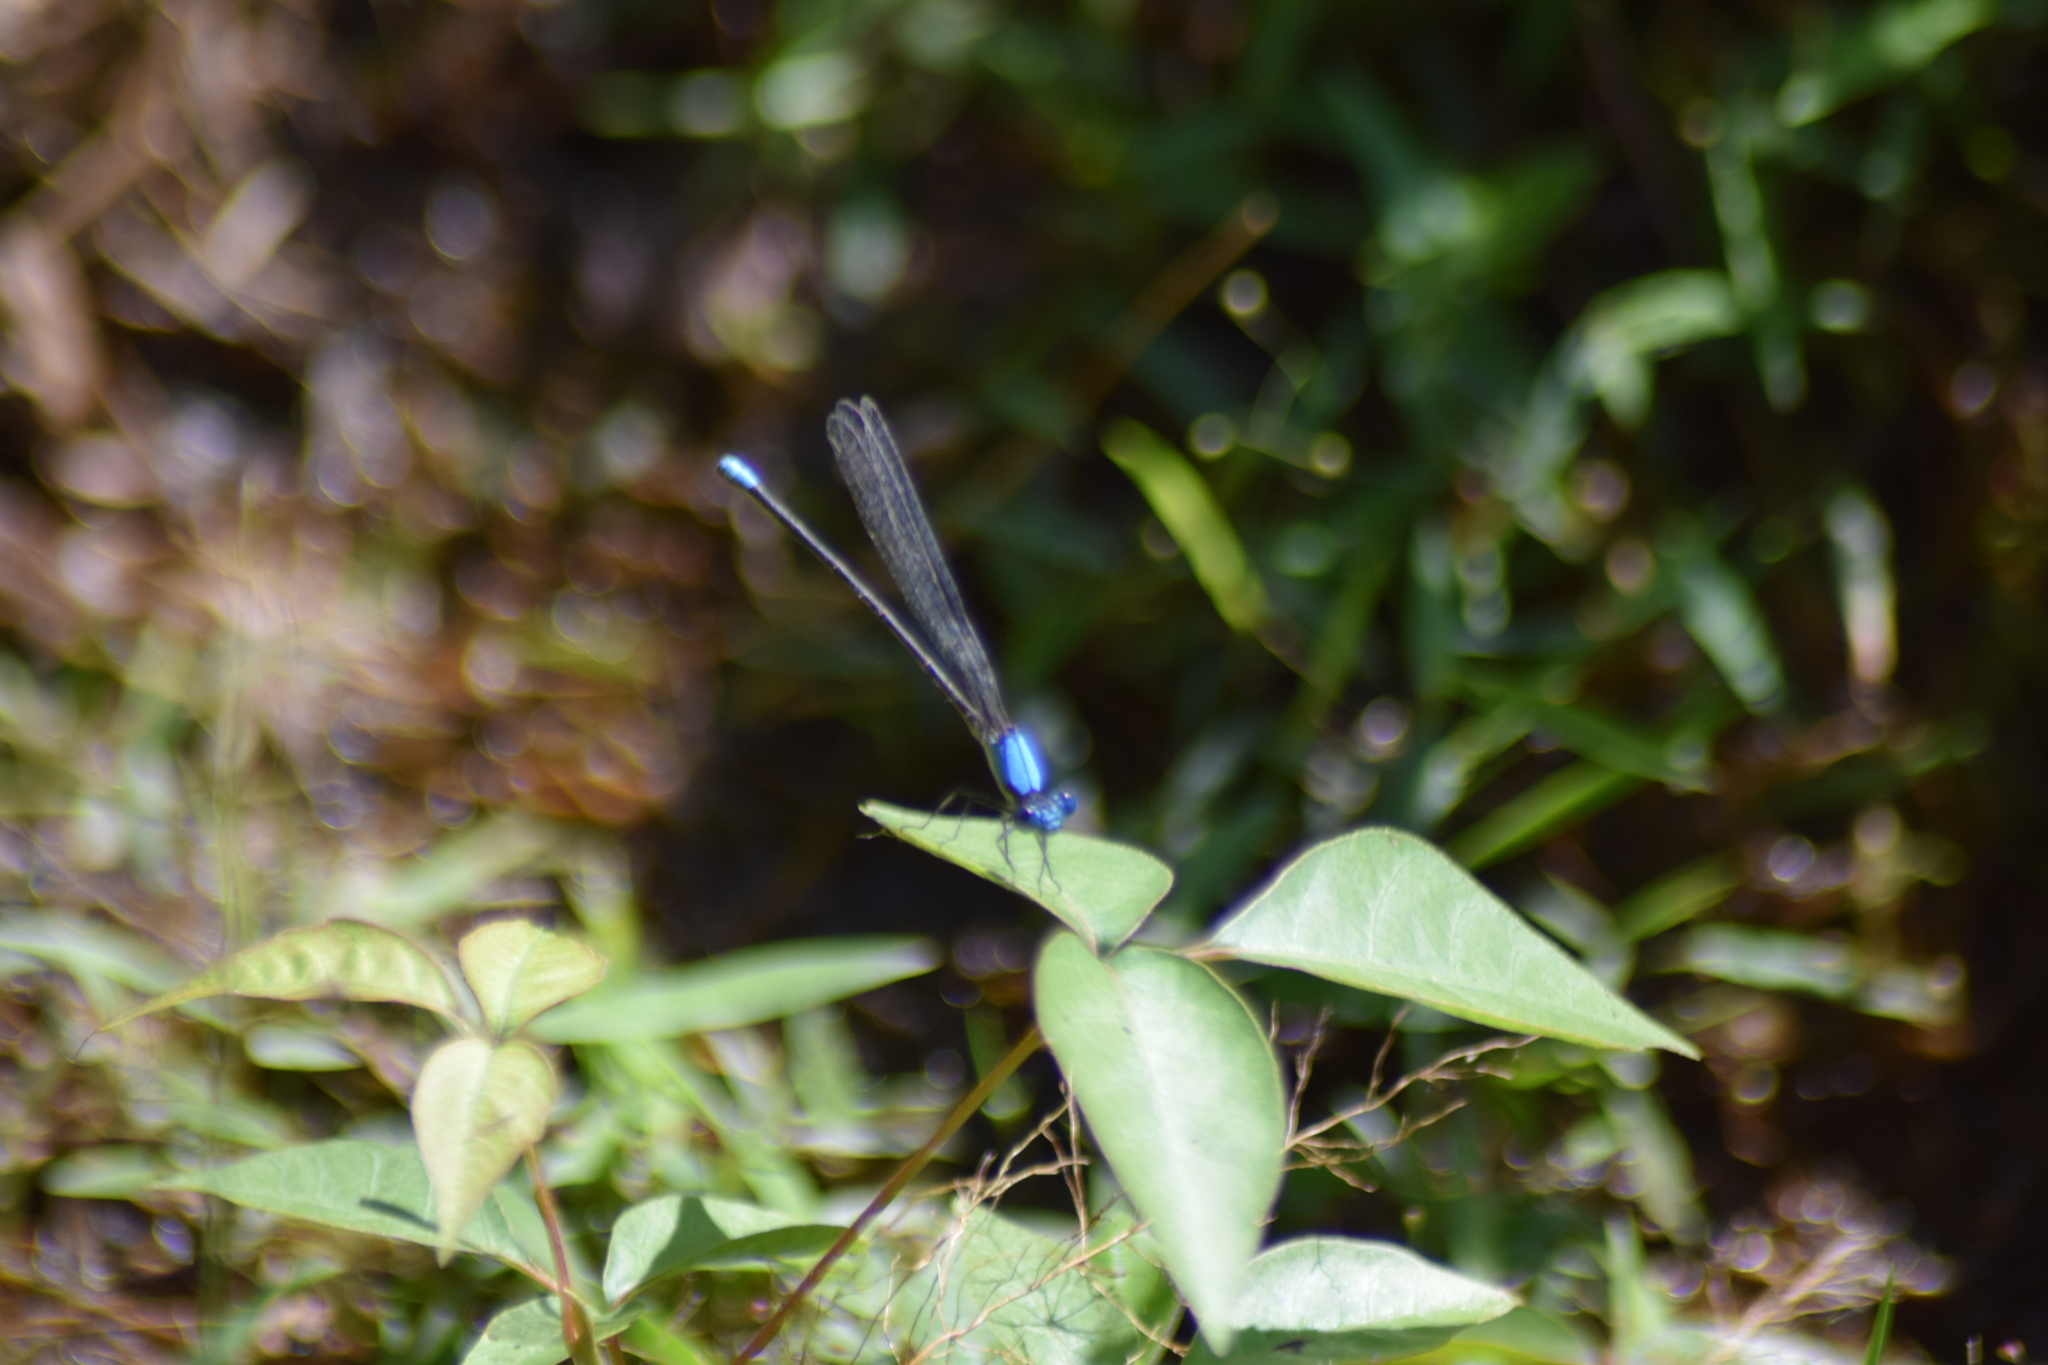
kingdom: Animalia
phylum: Arthropoda
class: Insecta
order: Odonata
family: Coenagrionidae
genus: Argia
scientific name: Argia apicalis
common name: Blue-fronted dancer
